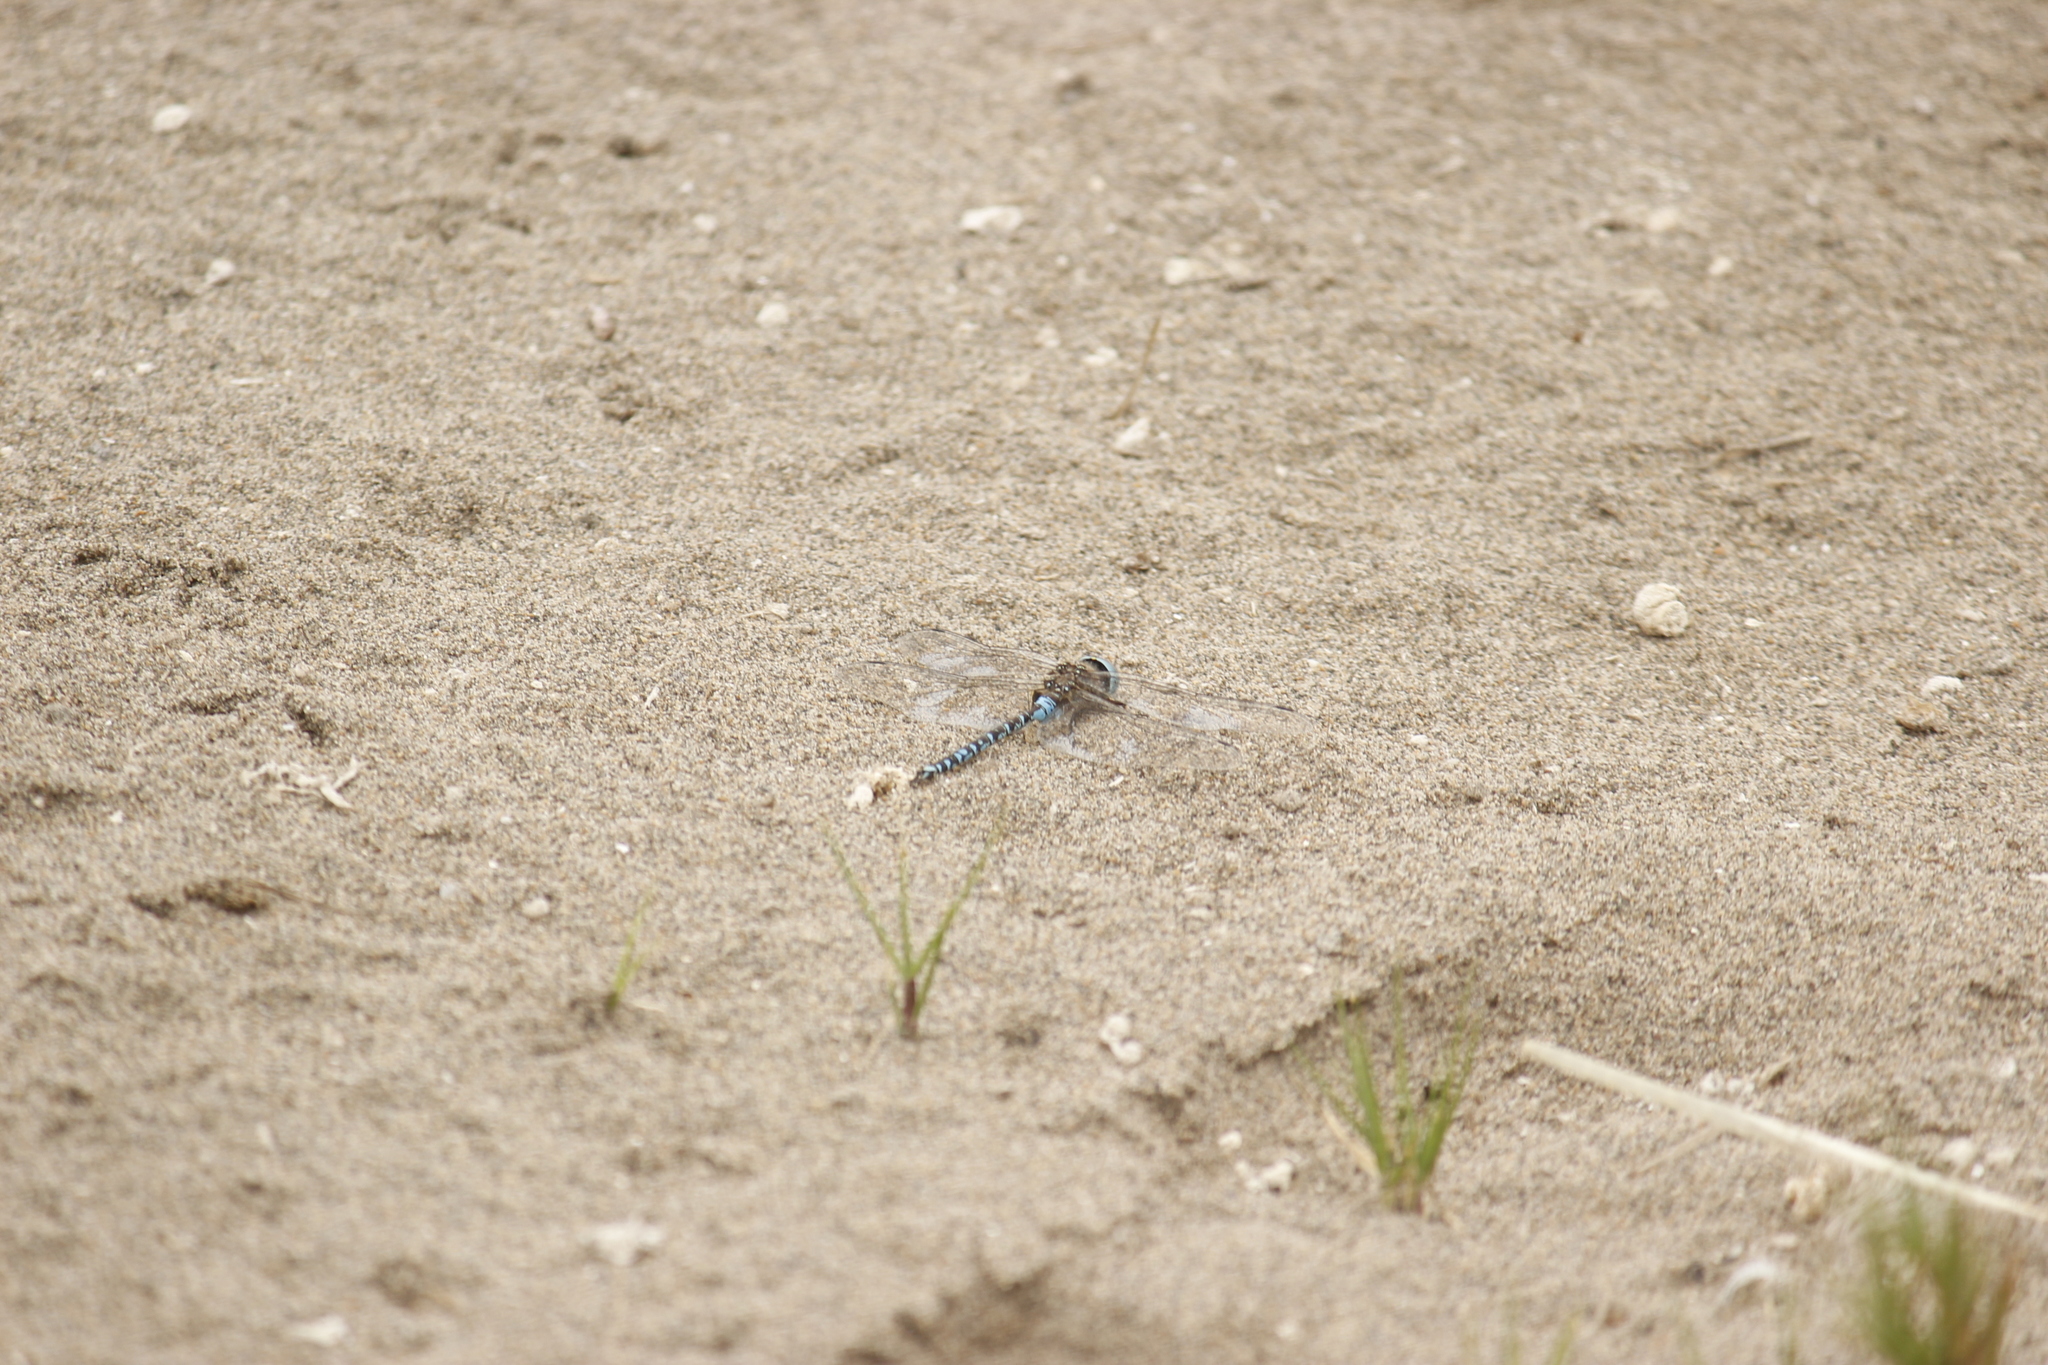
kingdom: Animalia
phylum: Arthropoda
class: Insecta
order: Odonata
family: Aeshnidae
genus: Rhionaeschna
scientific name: Rhionaeschna elsia
